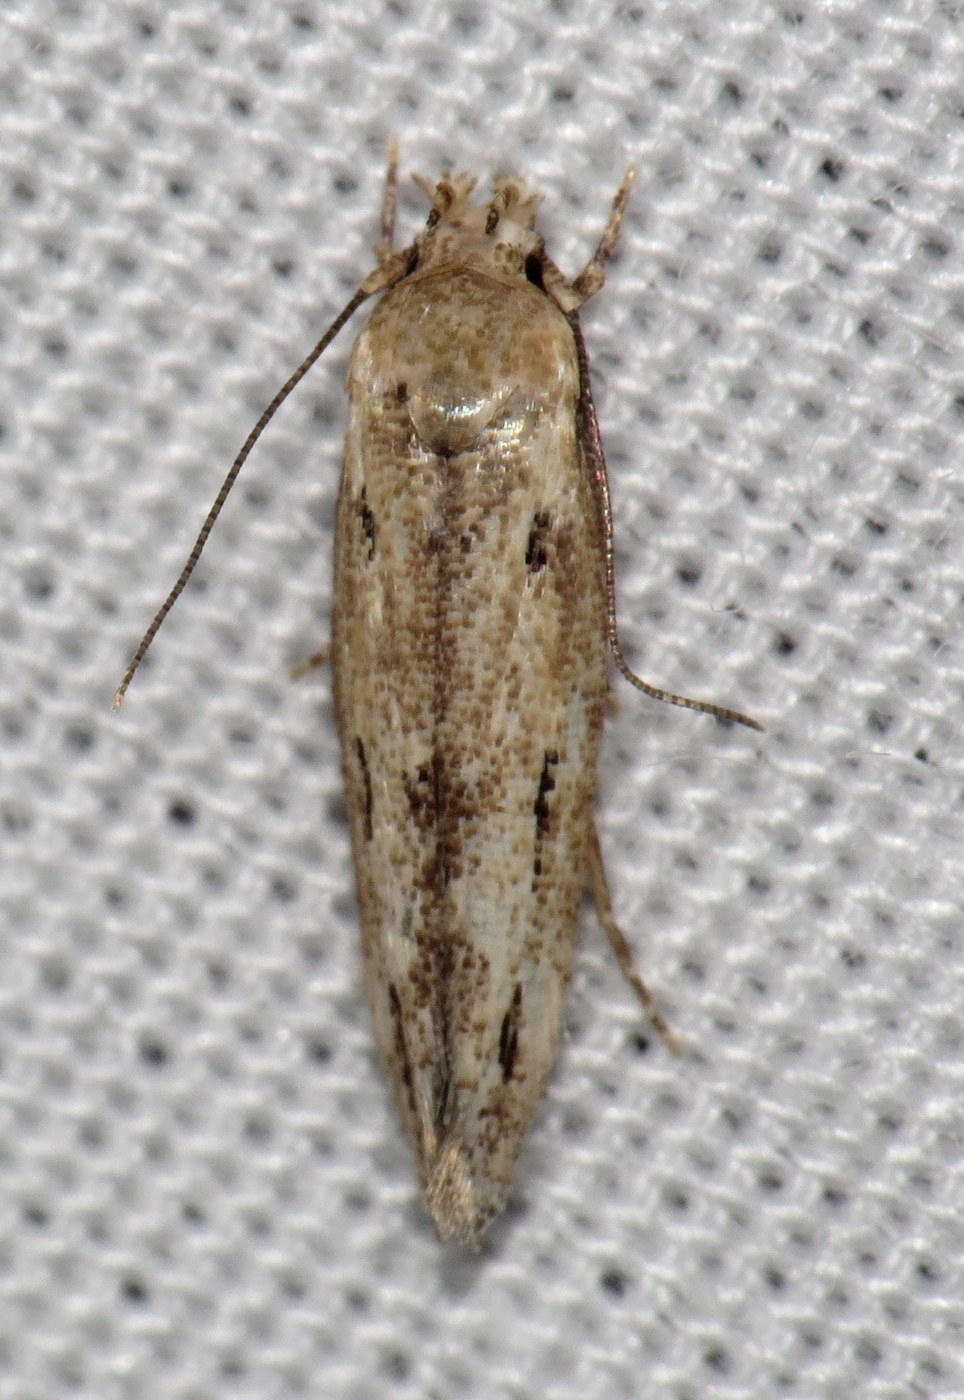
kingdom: Animalia
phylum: Arthropoda
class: Insecta
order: Lepidoptera
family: Momphidae
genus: Mompha
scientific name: Mompha brevivittella
